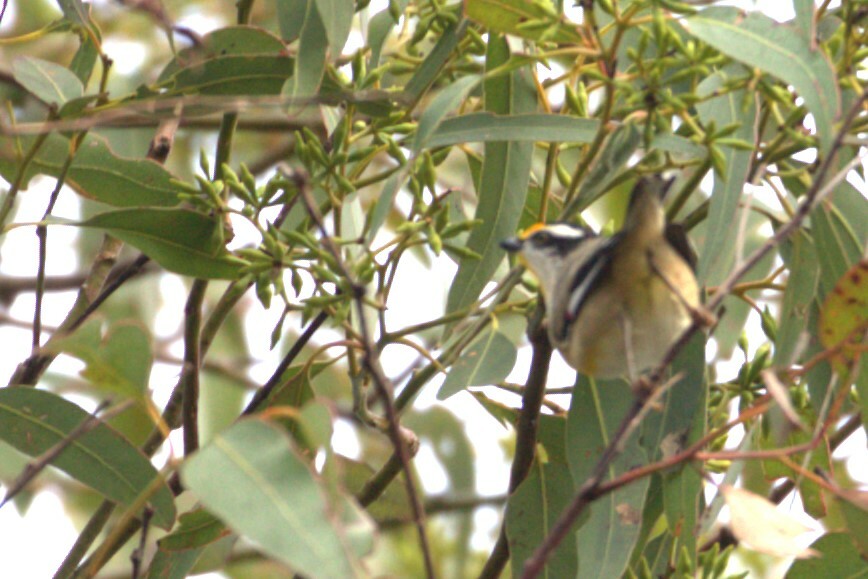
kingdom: Animalia
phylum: Chordata
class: Aves
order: Passeriformes
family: Pardalotidae
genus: Pardalotus
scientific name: Pardalotus striatus
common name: Striated pardalote
